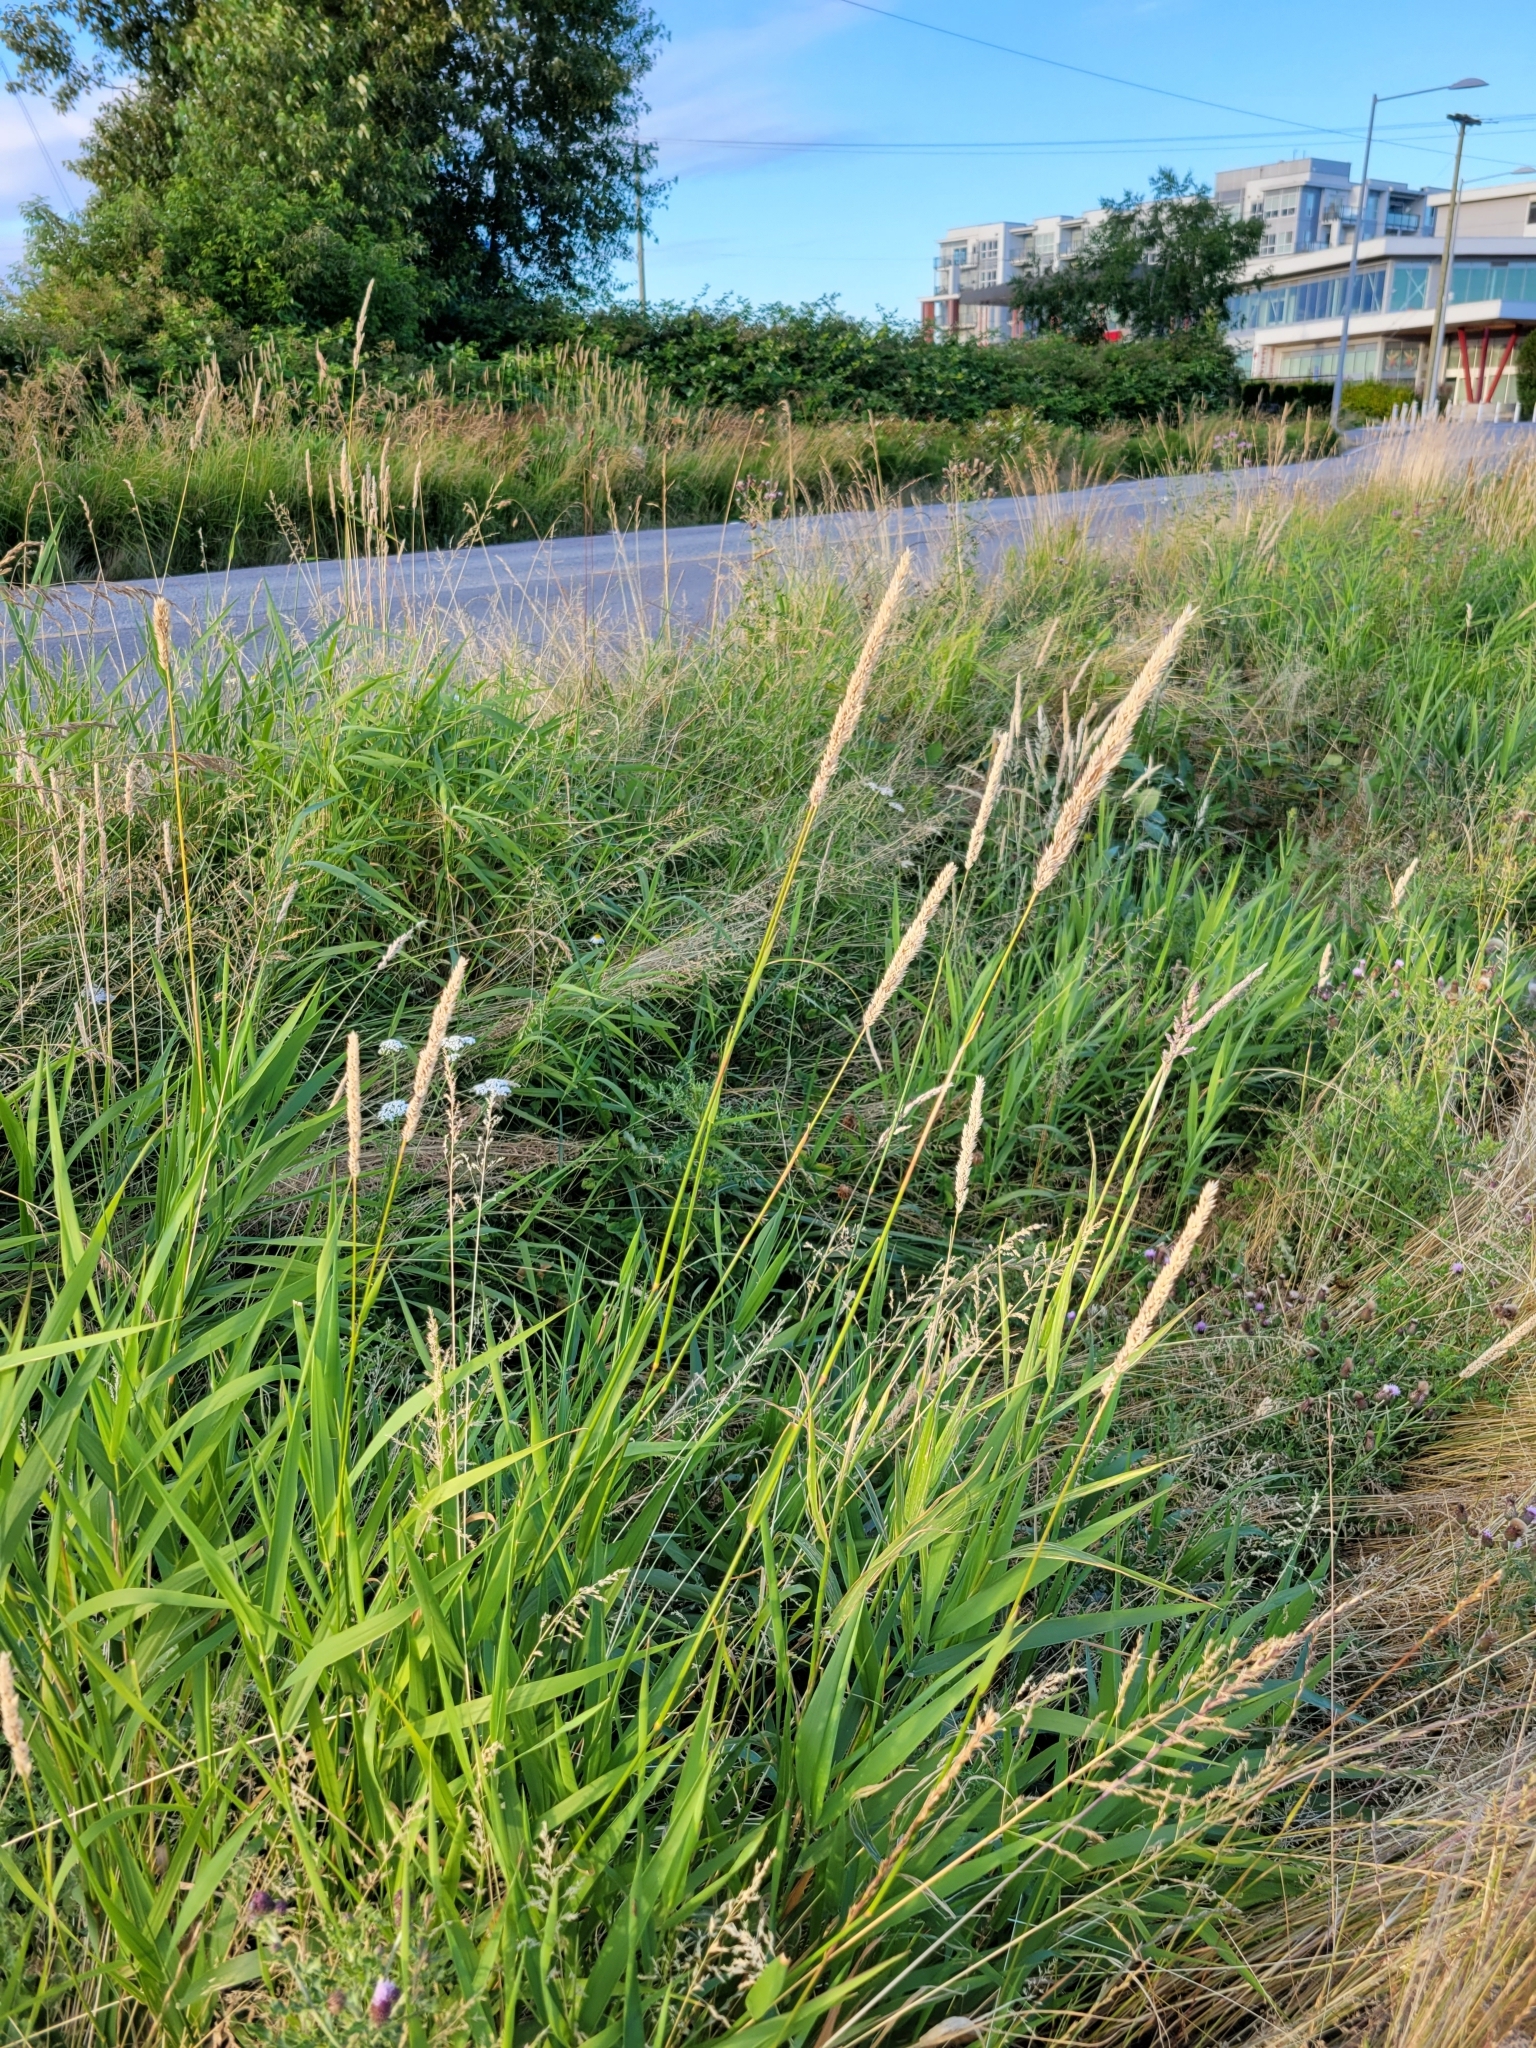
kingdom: Plantae
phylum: Tracheophyta
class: Liliopsida
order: Poales
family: Poaceae
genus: Phalaris
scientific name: Phalaris arundinacea
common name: Reed canary-grass
